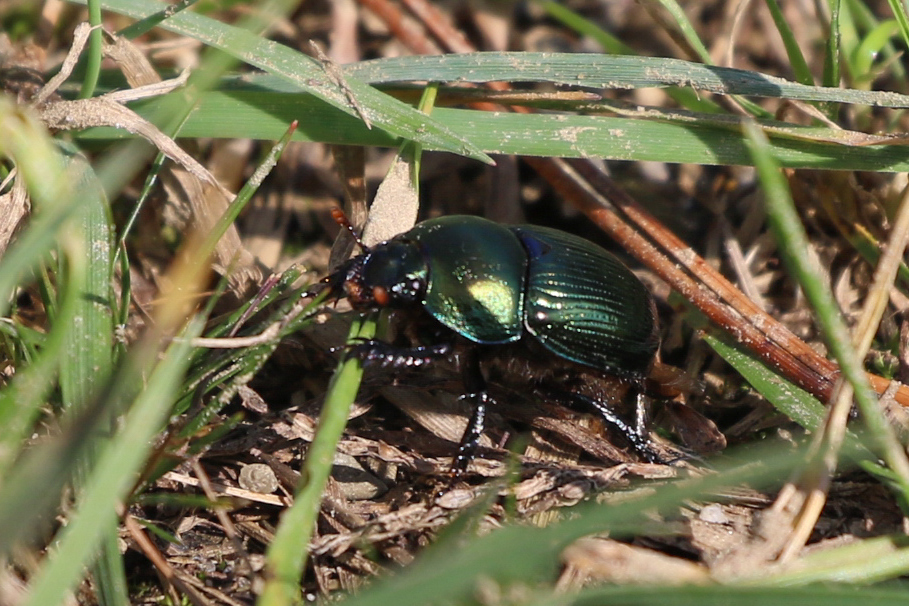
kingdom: Animalia
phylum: Arthropoda
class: Insecta
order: Coleoptera
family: Geotrupidae
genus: Geotrupes
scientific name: Geotrupes splendidus
